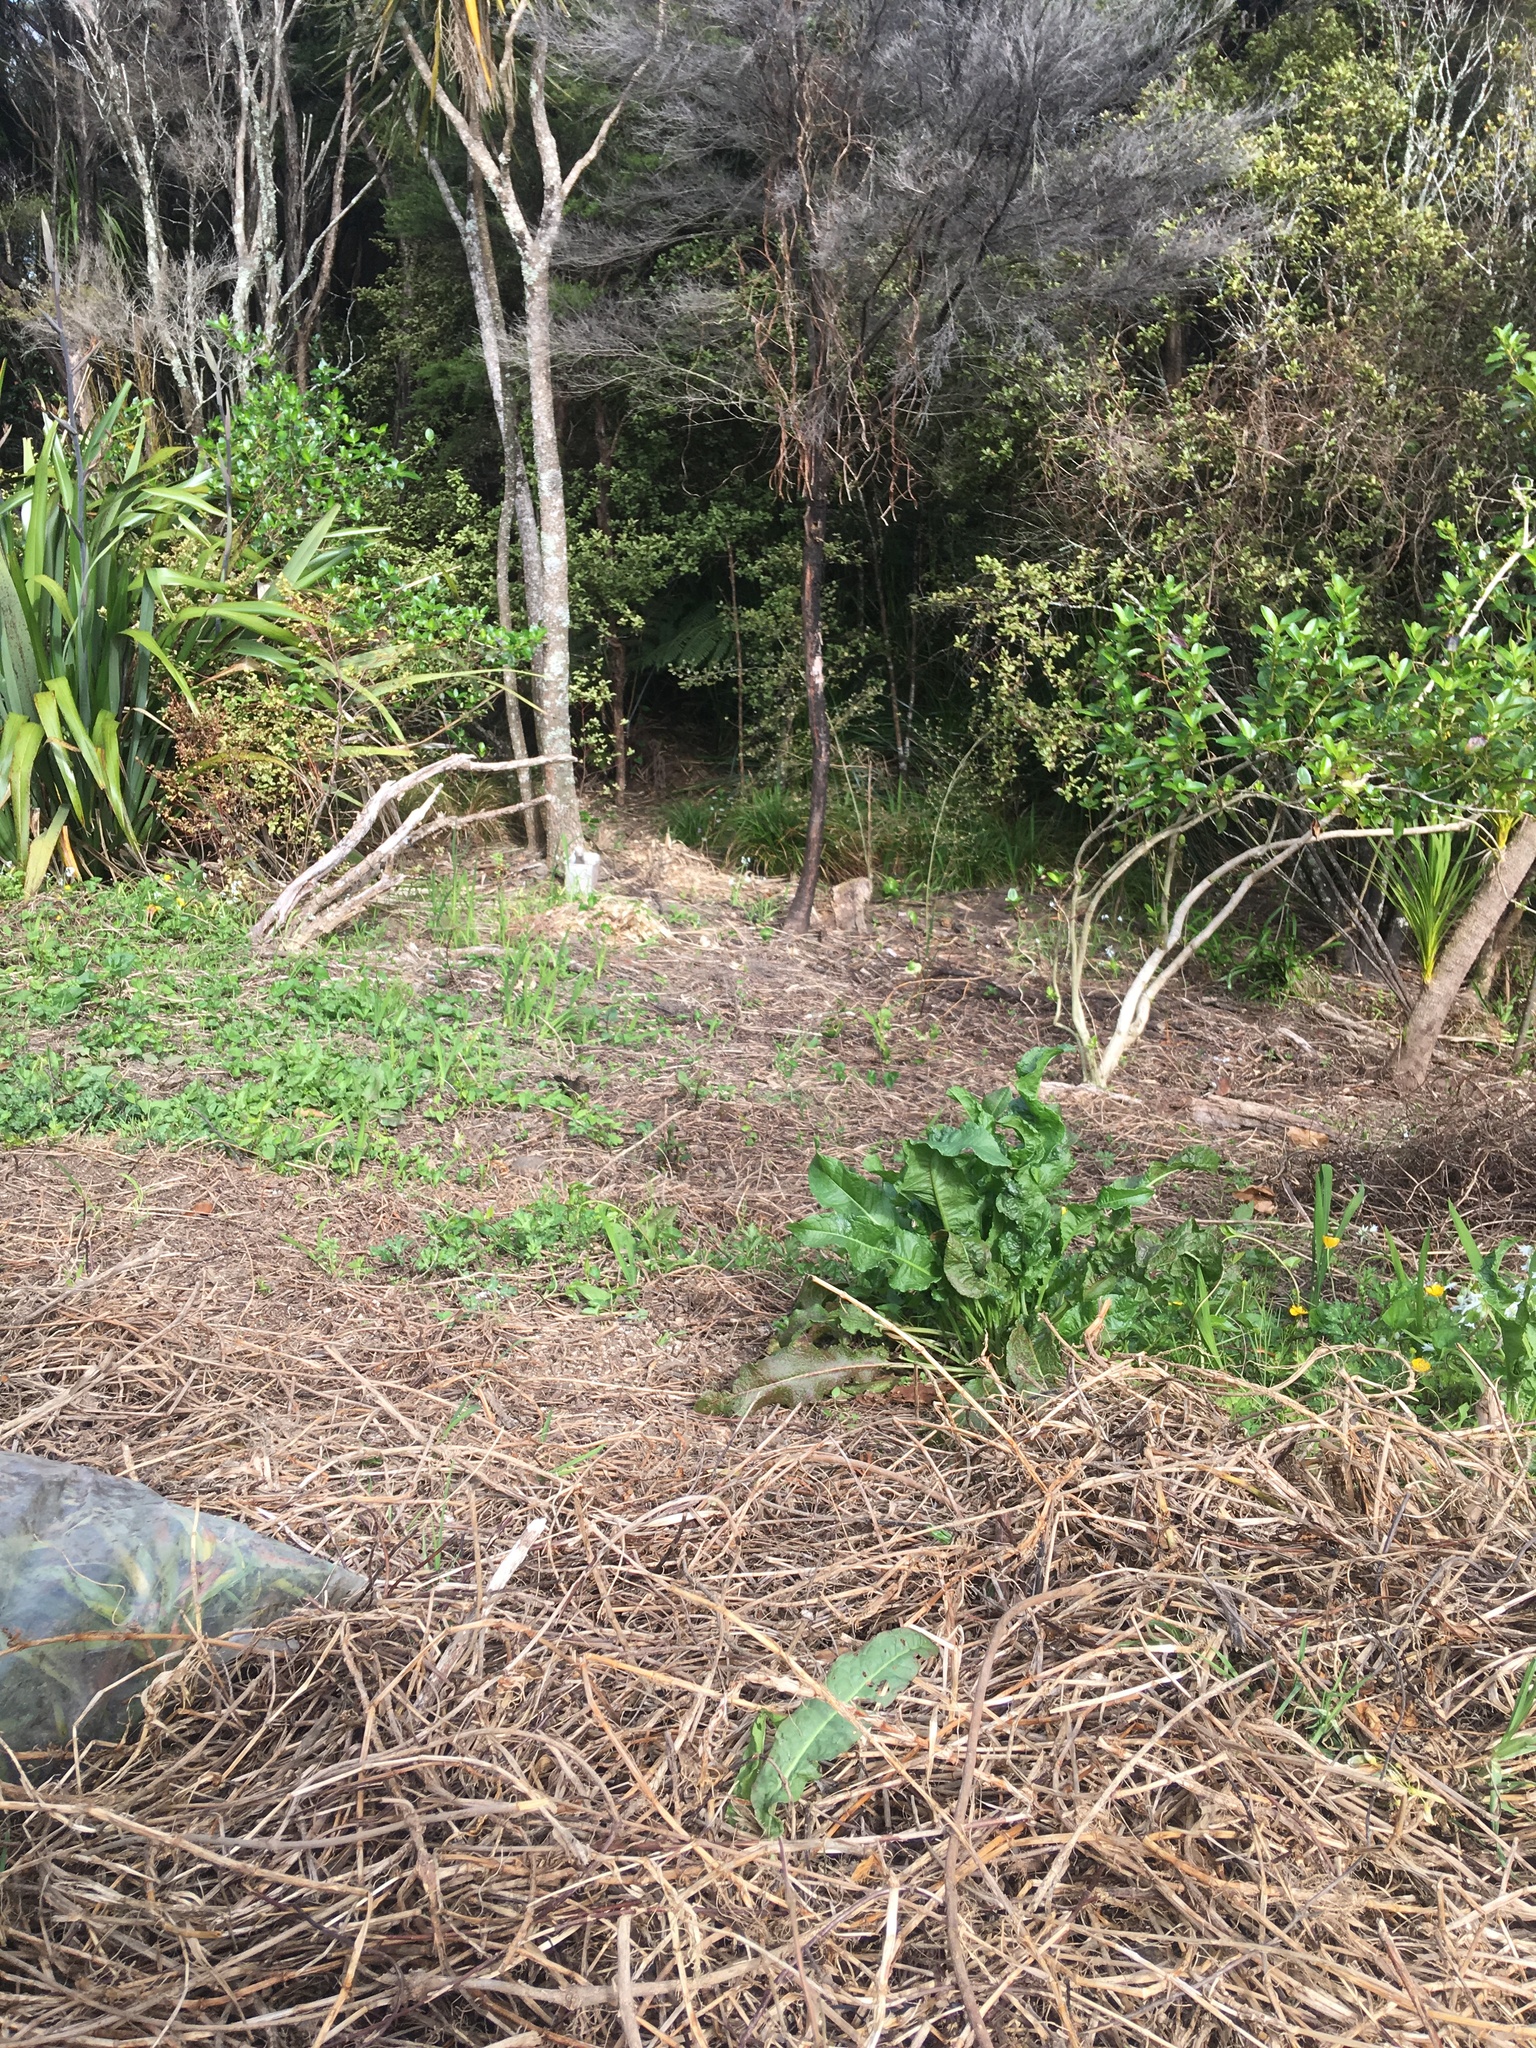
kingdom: Plantae
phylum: Tracheophyta
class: Magnoliopsida
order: Caryophyllales
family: Polygonaceae
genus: Rumex
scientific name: Rumex obtusifolius
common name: Bitter dock
